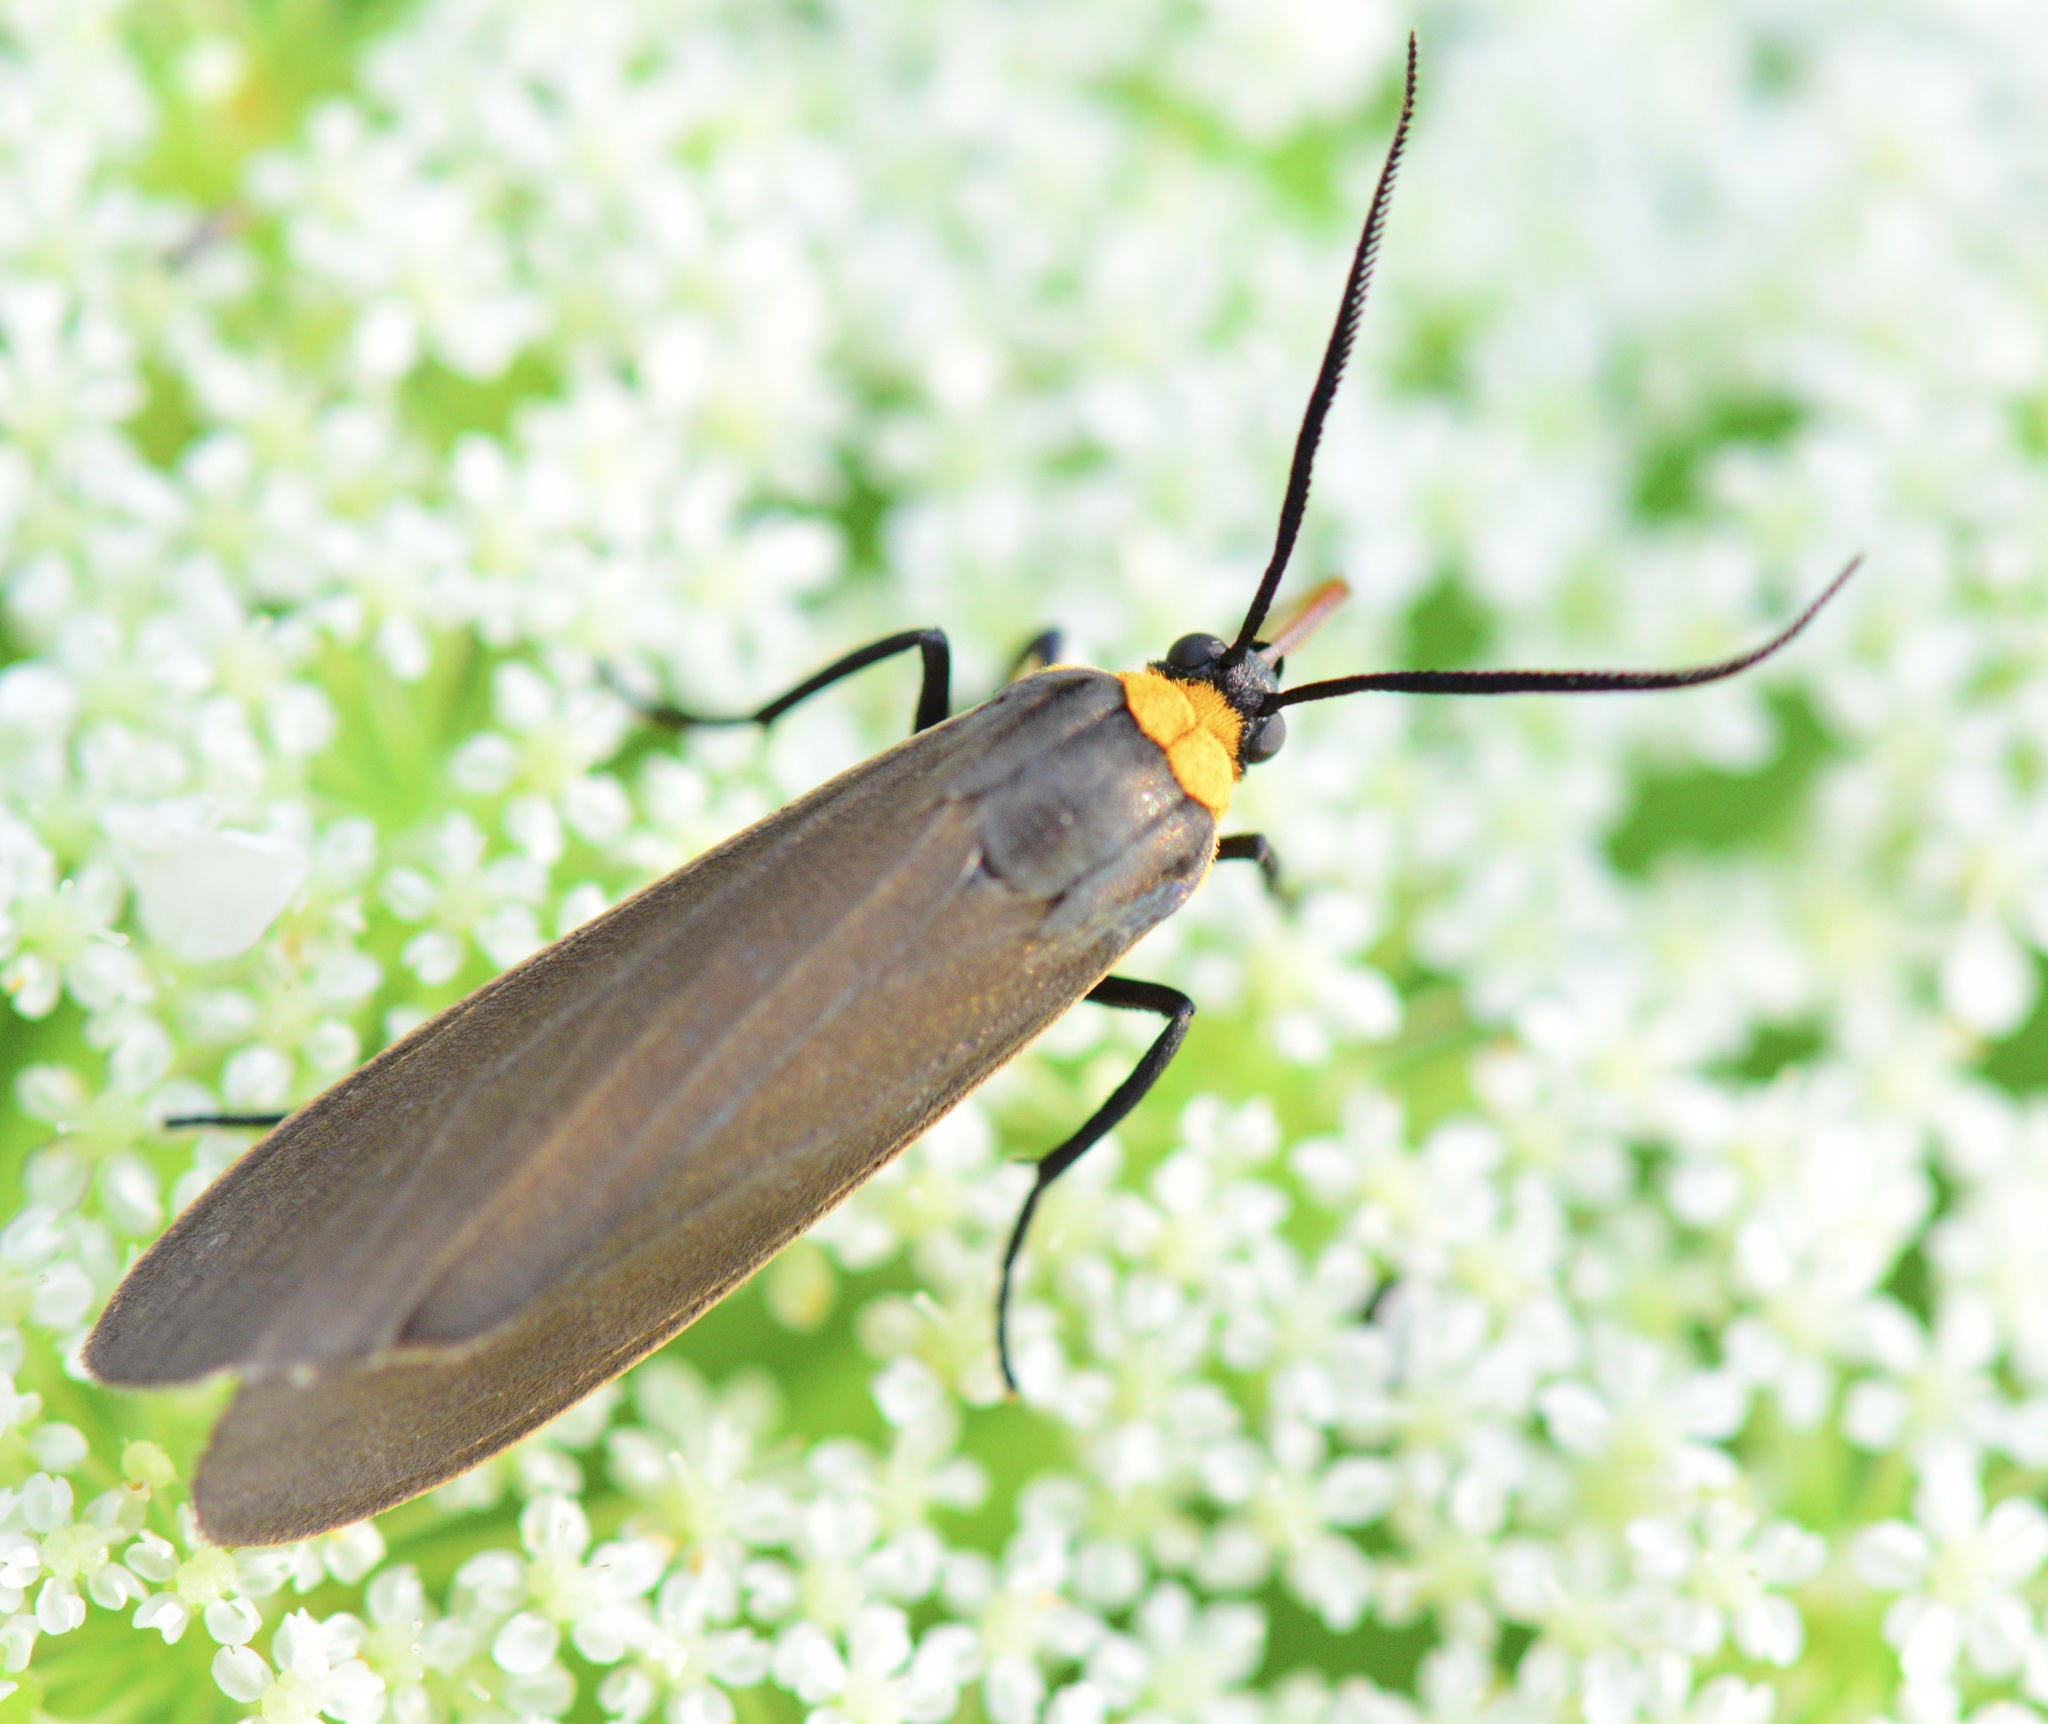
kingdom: Animalia
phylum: Arthropoda
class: Insecta
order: Lepidoptera
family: Erebidae
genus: Cisseps
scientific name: Cisseps fulvicollis
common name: Yellow-collared scape moth
